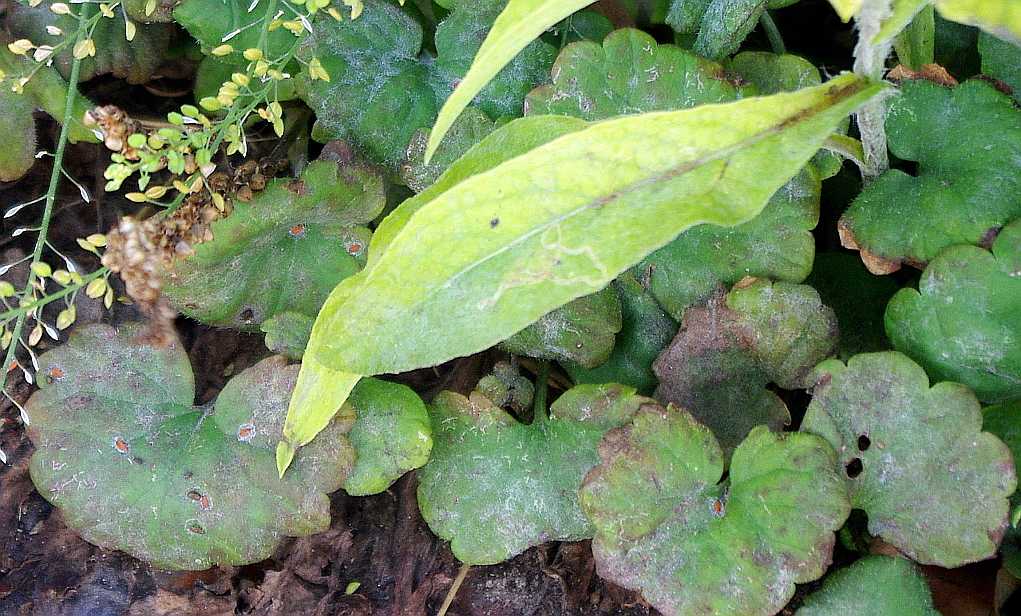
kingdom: Plantae
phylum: Tracheophyta
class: Magnoliopsida
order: Lamiales
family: Lamiaceae
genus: Glechoma
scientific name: Glechoma hederacea
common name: Ground ivy
